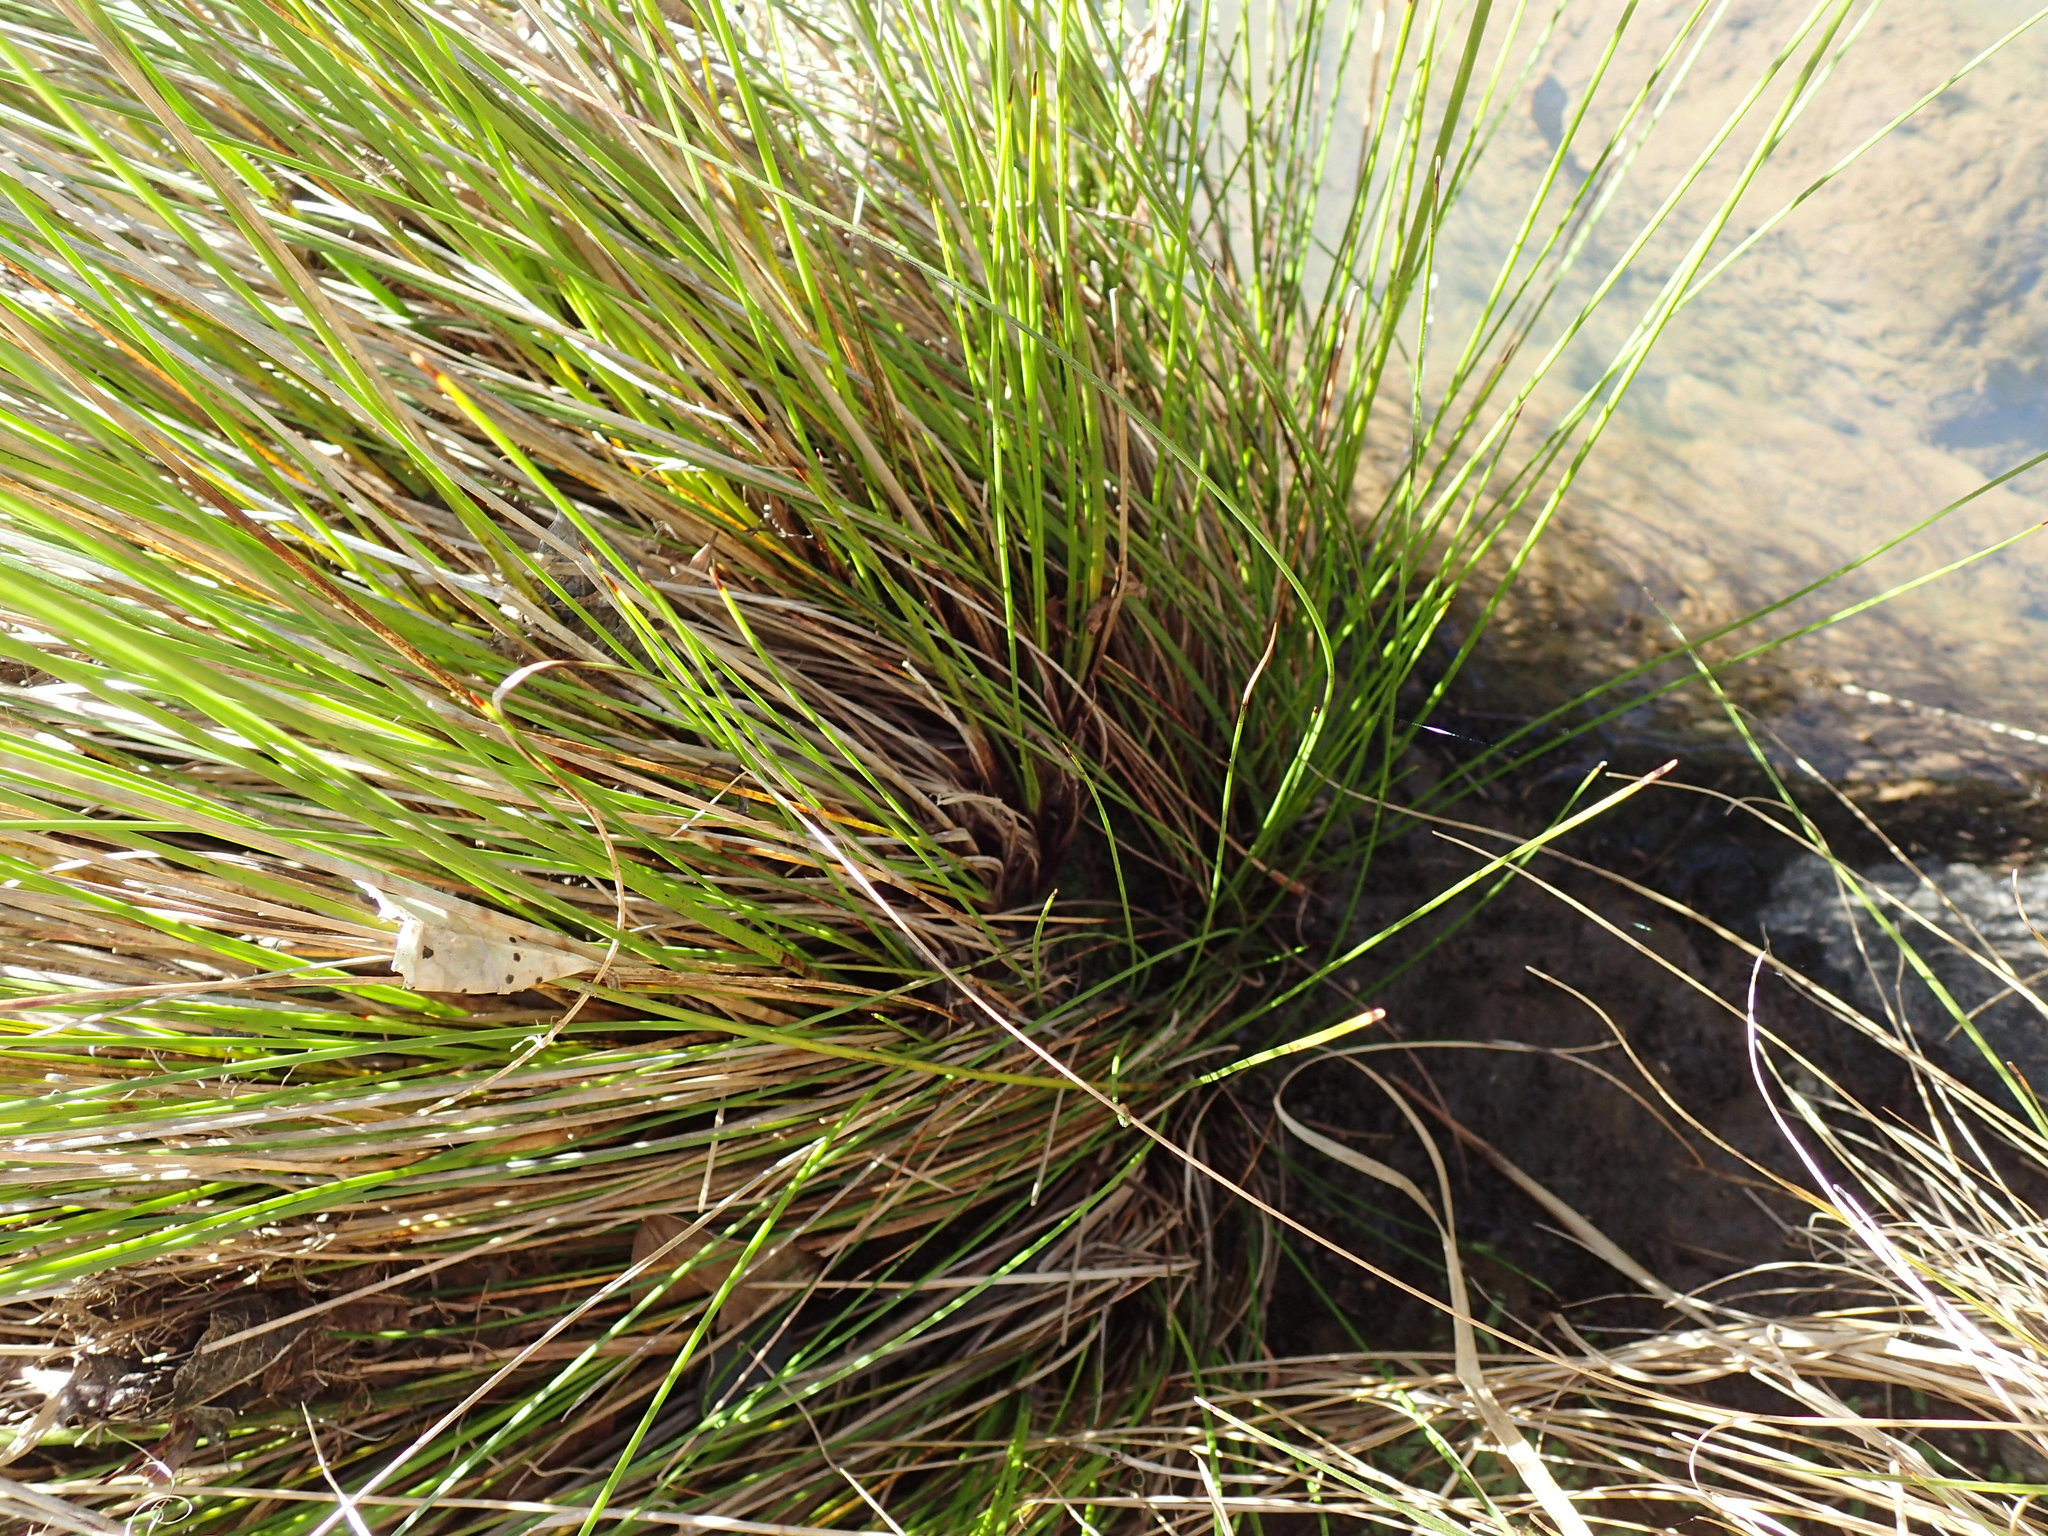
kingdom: Plantae
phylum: Tracheophyta
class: Liliopsida
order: Poales
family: Cyperaceae
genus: Schoenus
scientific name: Schoenus nigricans
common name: Black bog-rush
